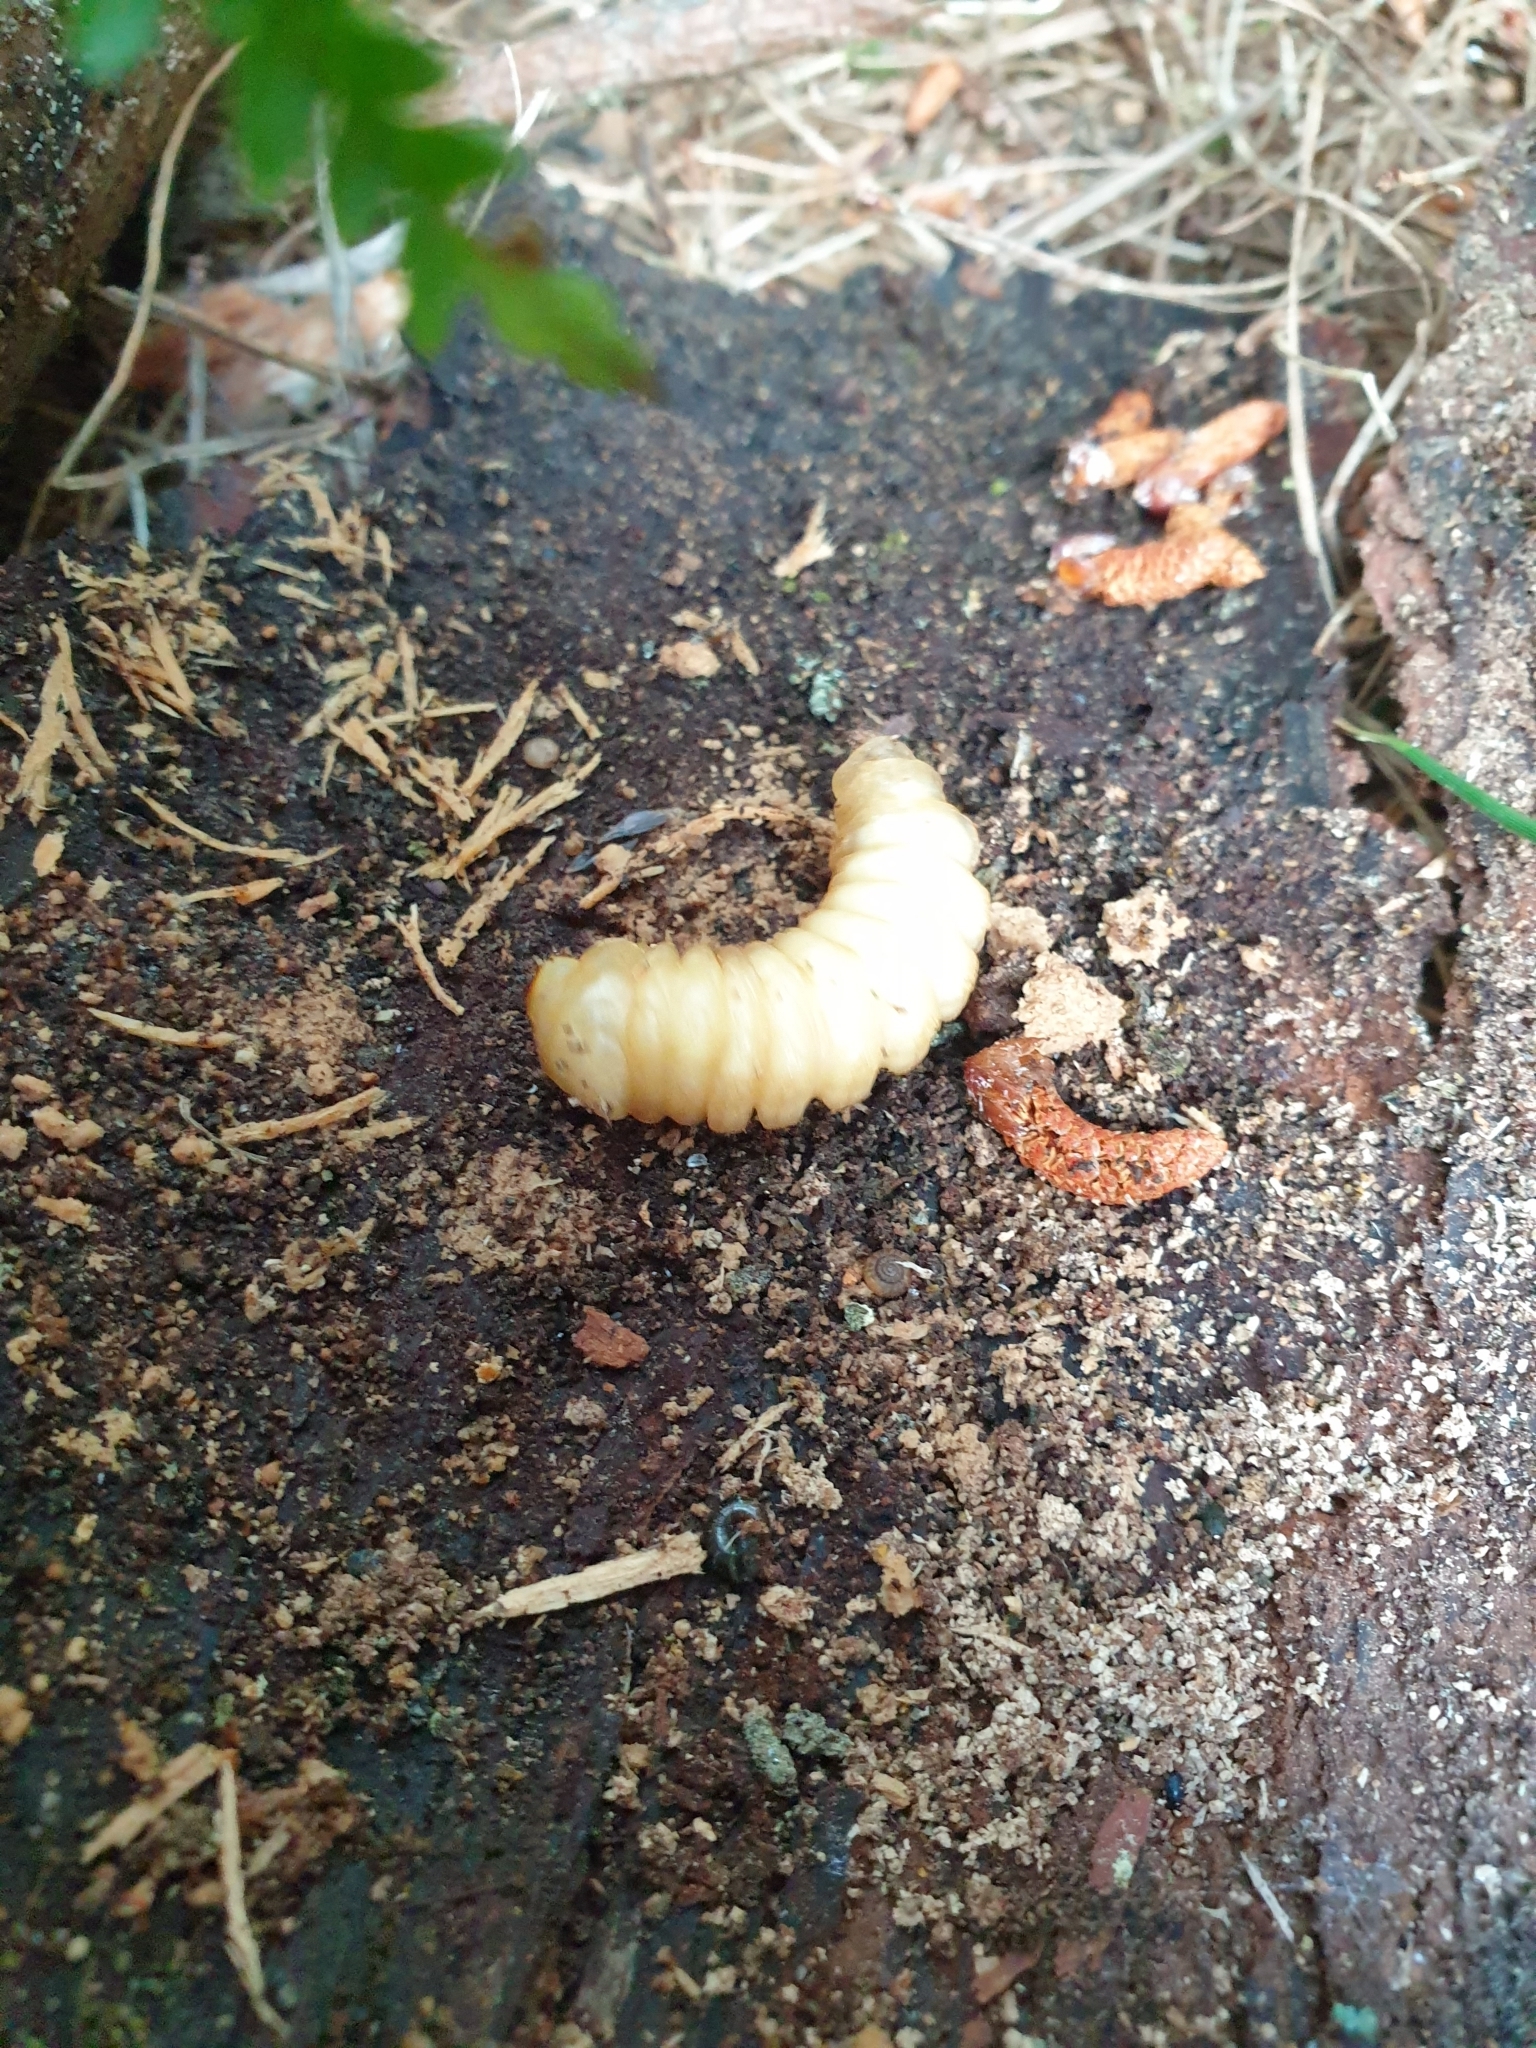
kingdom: Animalia
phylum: Arthropoda
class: Insecta
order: Coleoptera
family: Cerambycidae
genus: Prionoplus
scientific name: Prionoplus reticularis
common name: Huhu beetle
